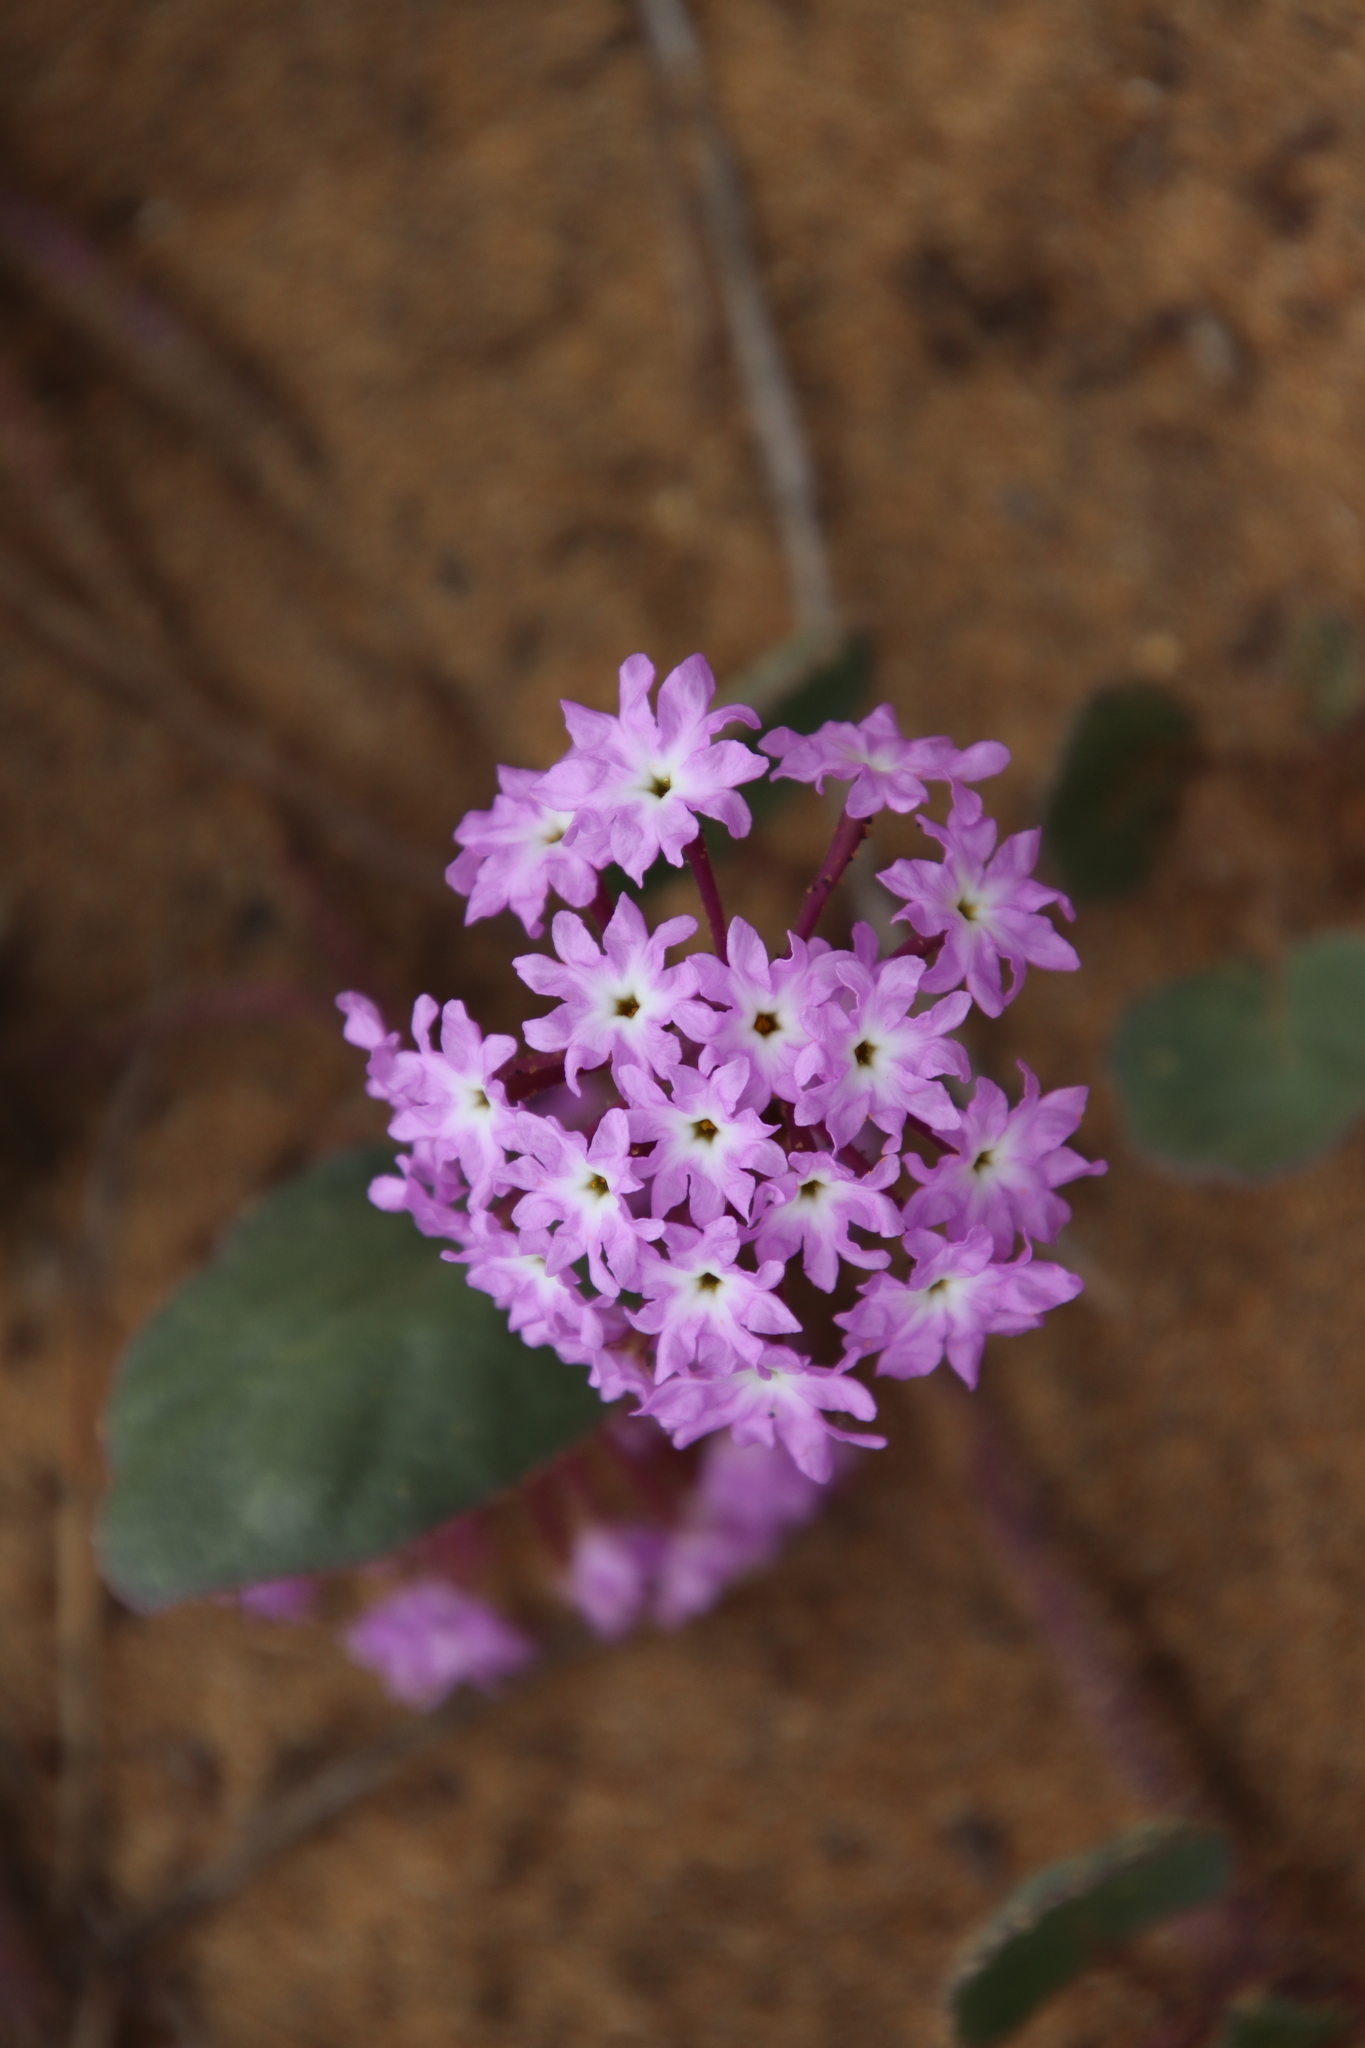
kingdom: Plantae
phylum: Tracheophyta
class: Magnoliopsida
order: Caryophyllales
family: Nyctaginaceae
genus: Abronia
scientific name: Abronia umbellata
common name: Sand-verbena
